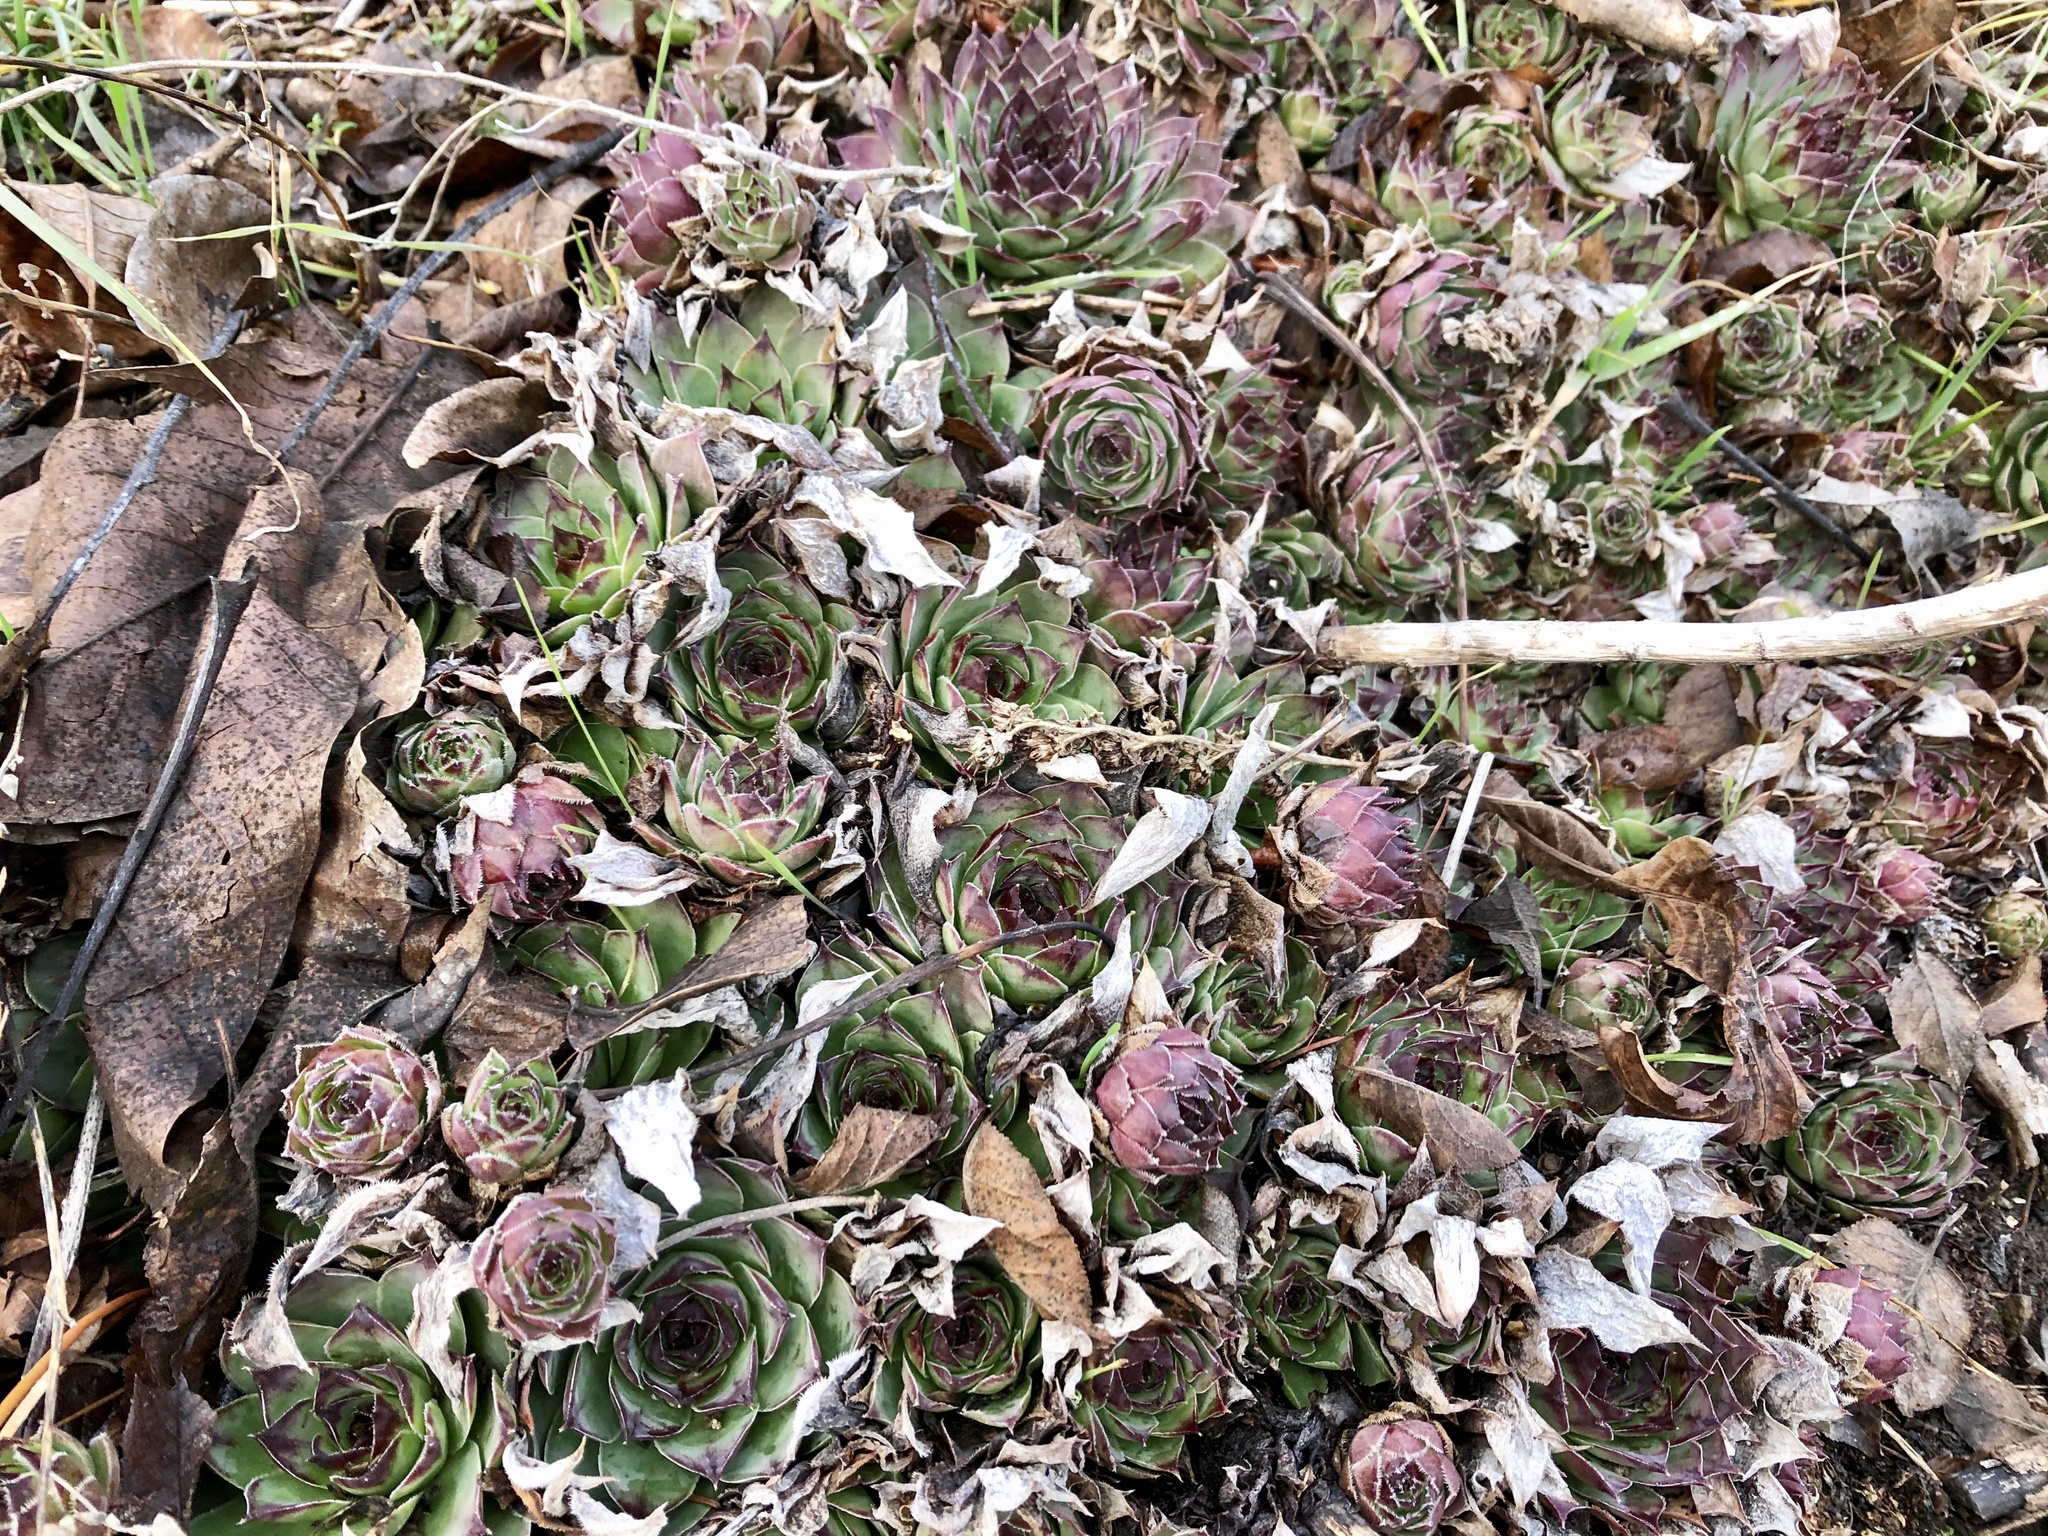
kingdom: Plantae
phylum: Tracheophyta
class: Magnoliopsida
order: Saxifragales
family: Crassulaceae
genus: Sempervivum
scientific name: Sempervivum tectorum
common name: House-leek
